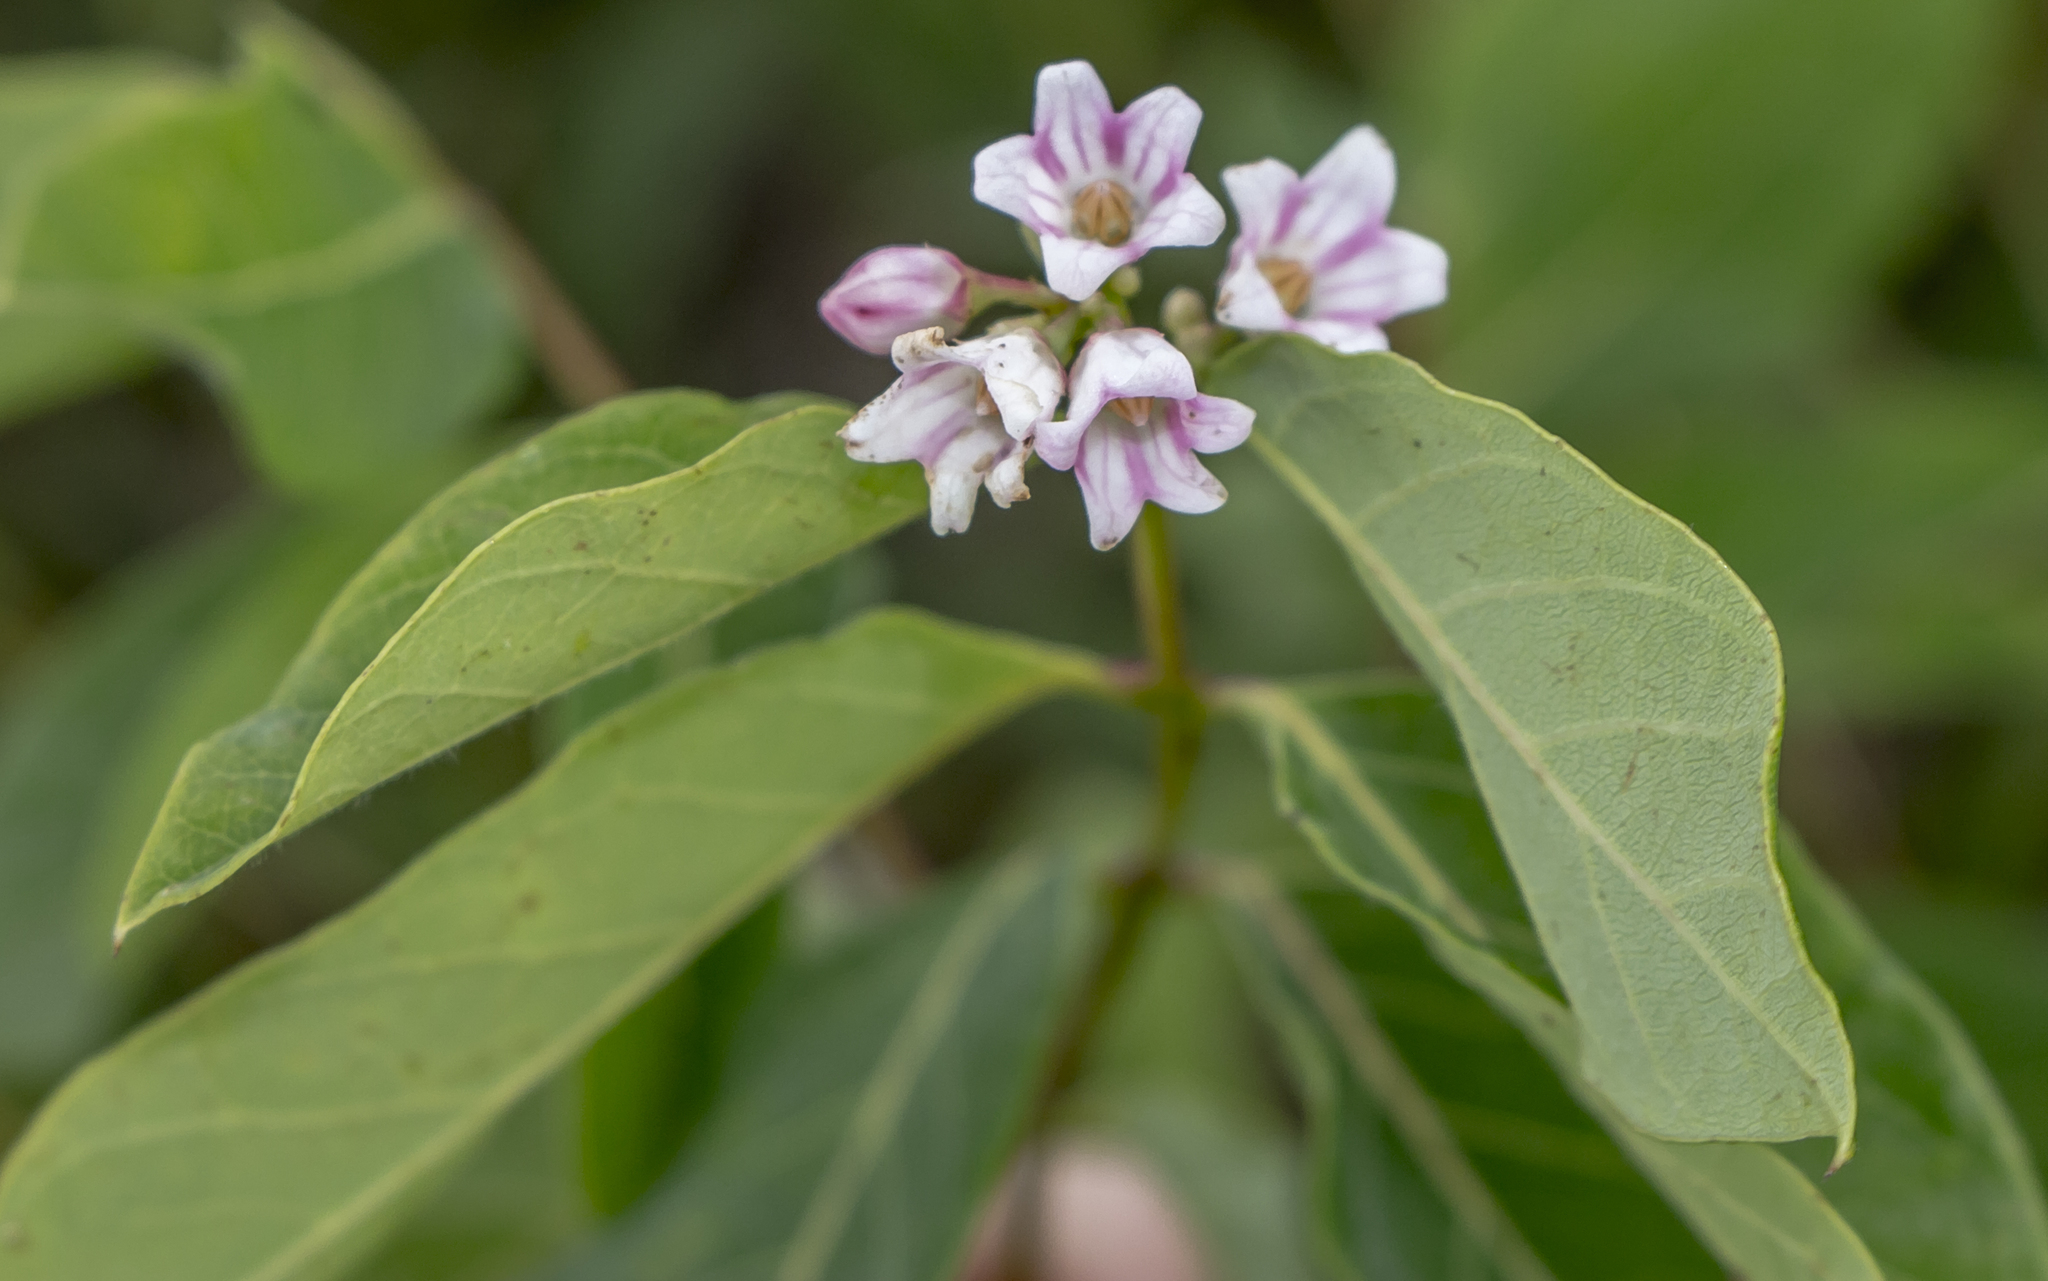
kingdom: Plantae
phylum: Tracheophyta
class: Magnoliopsida
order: Gentianales
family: Apocynaceae
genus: Apocynum
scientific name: Apocynum androsaemifolium
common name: Spreading dogbane
